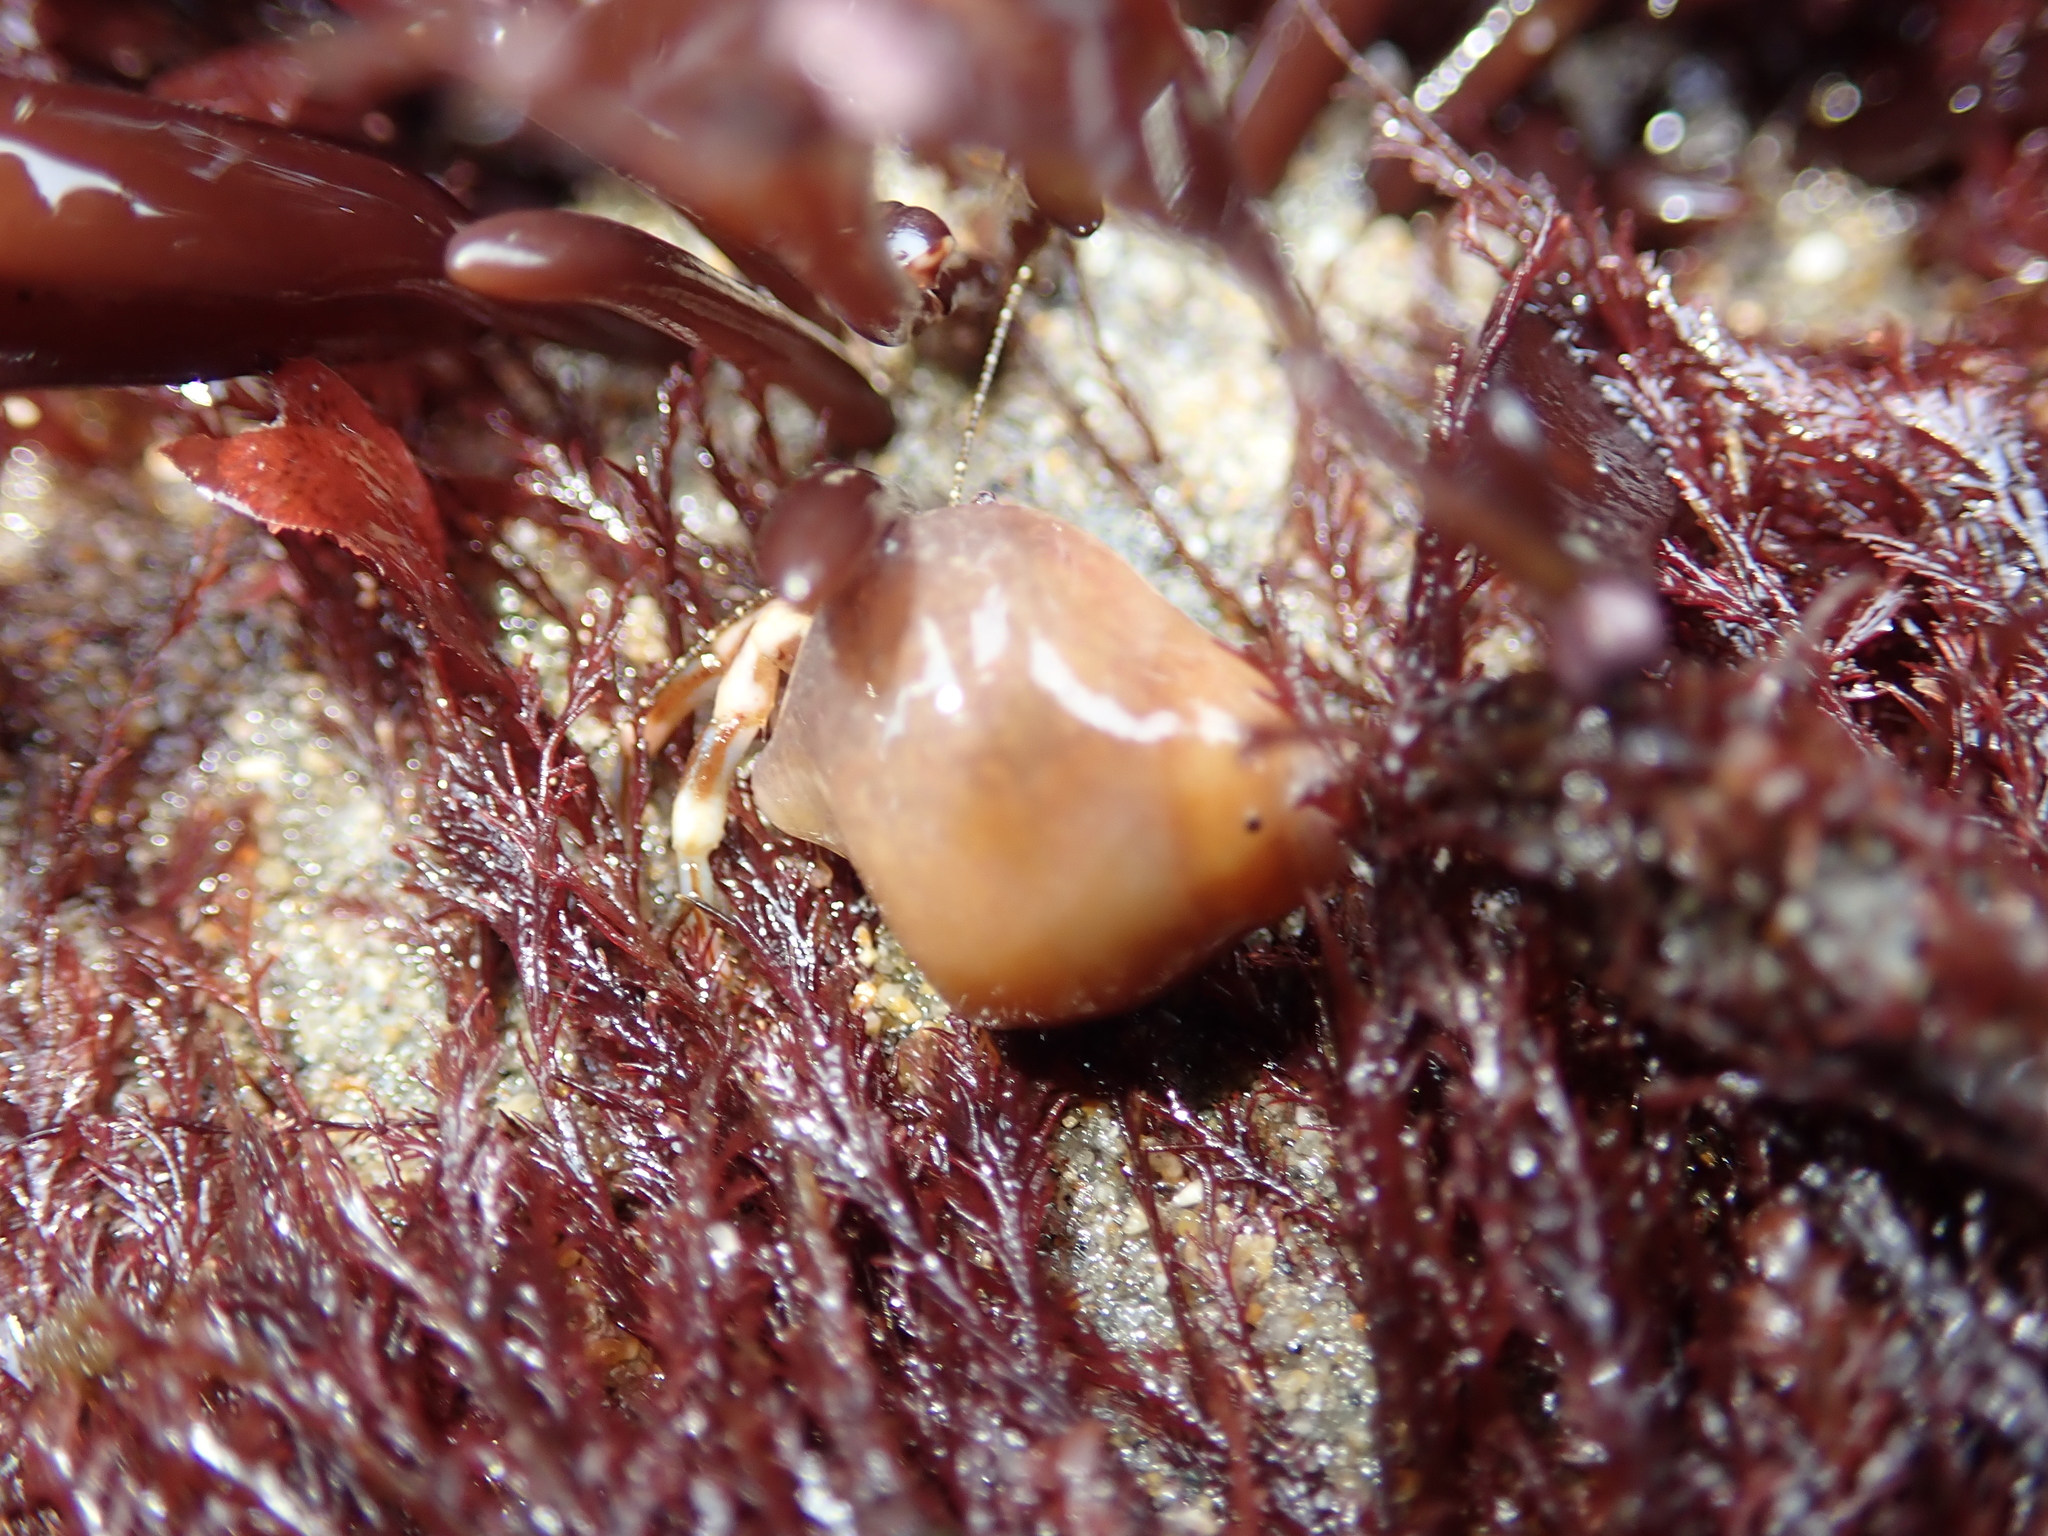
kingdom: Animalia
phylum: Arthropoda
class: Malacostraca
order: Decapoda
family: Paguridae
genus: Pagurus
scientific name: Pagurus hirsutiusculus
